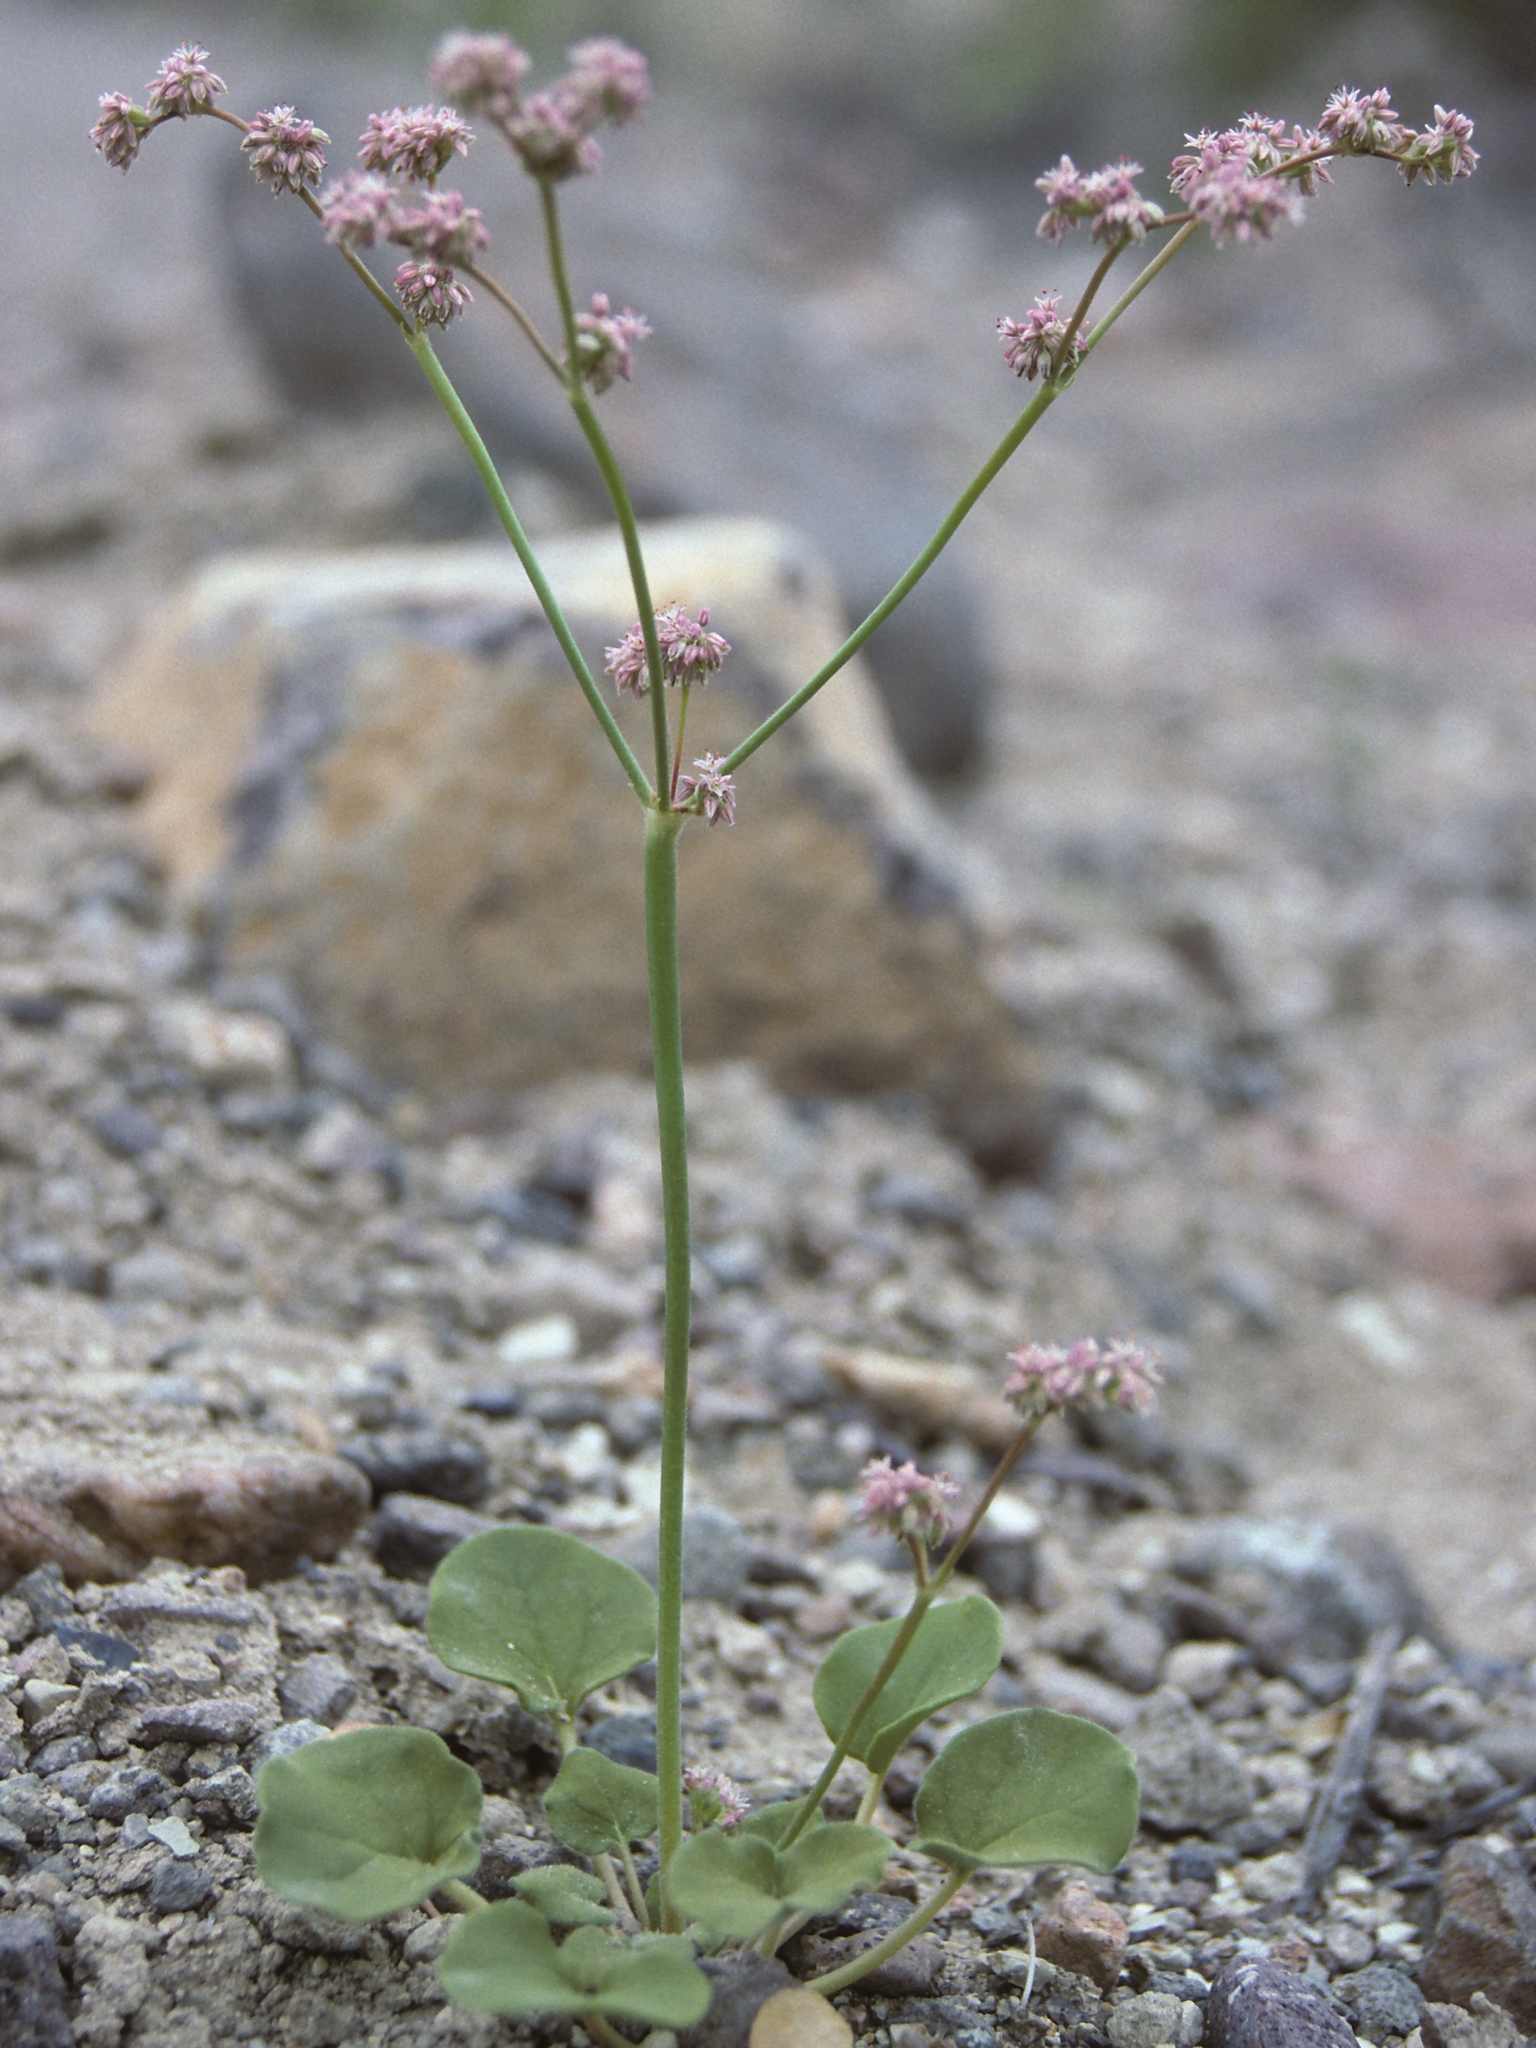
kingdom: Plantae
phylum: Tracheophyta
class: Magnoliopsida
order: Caryophyllales
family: Polygonaceae
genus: Eriogonum
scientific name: Eriogonum lemmonii
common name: Lemmon's wild buckwheat
